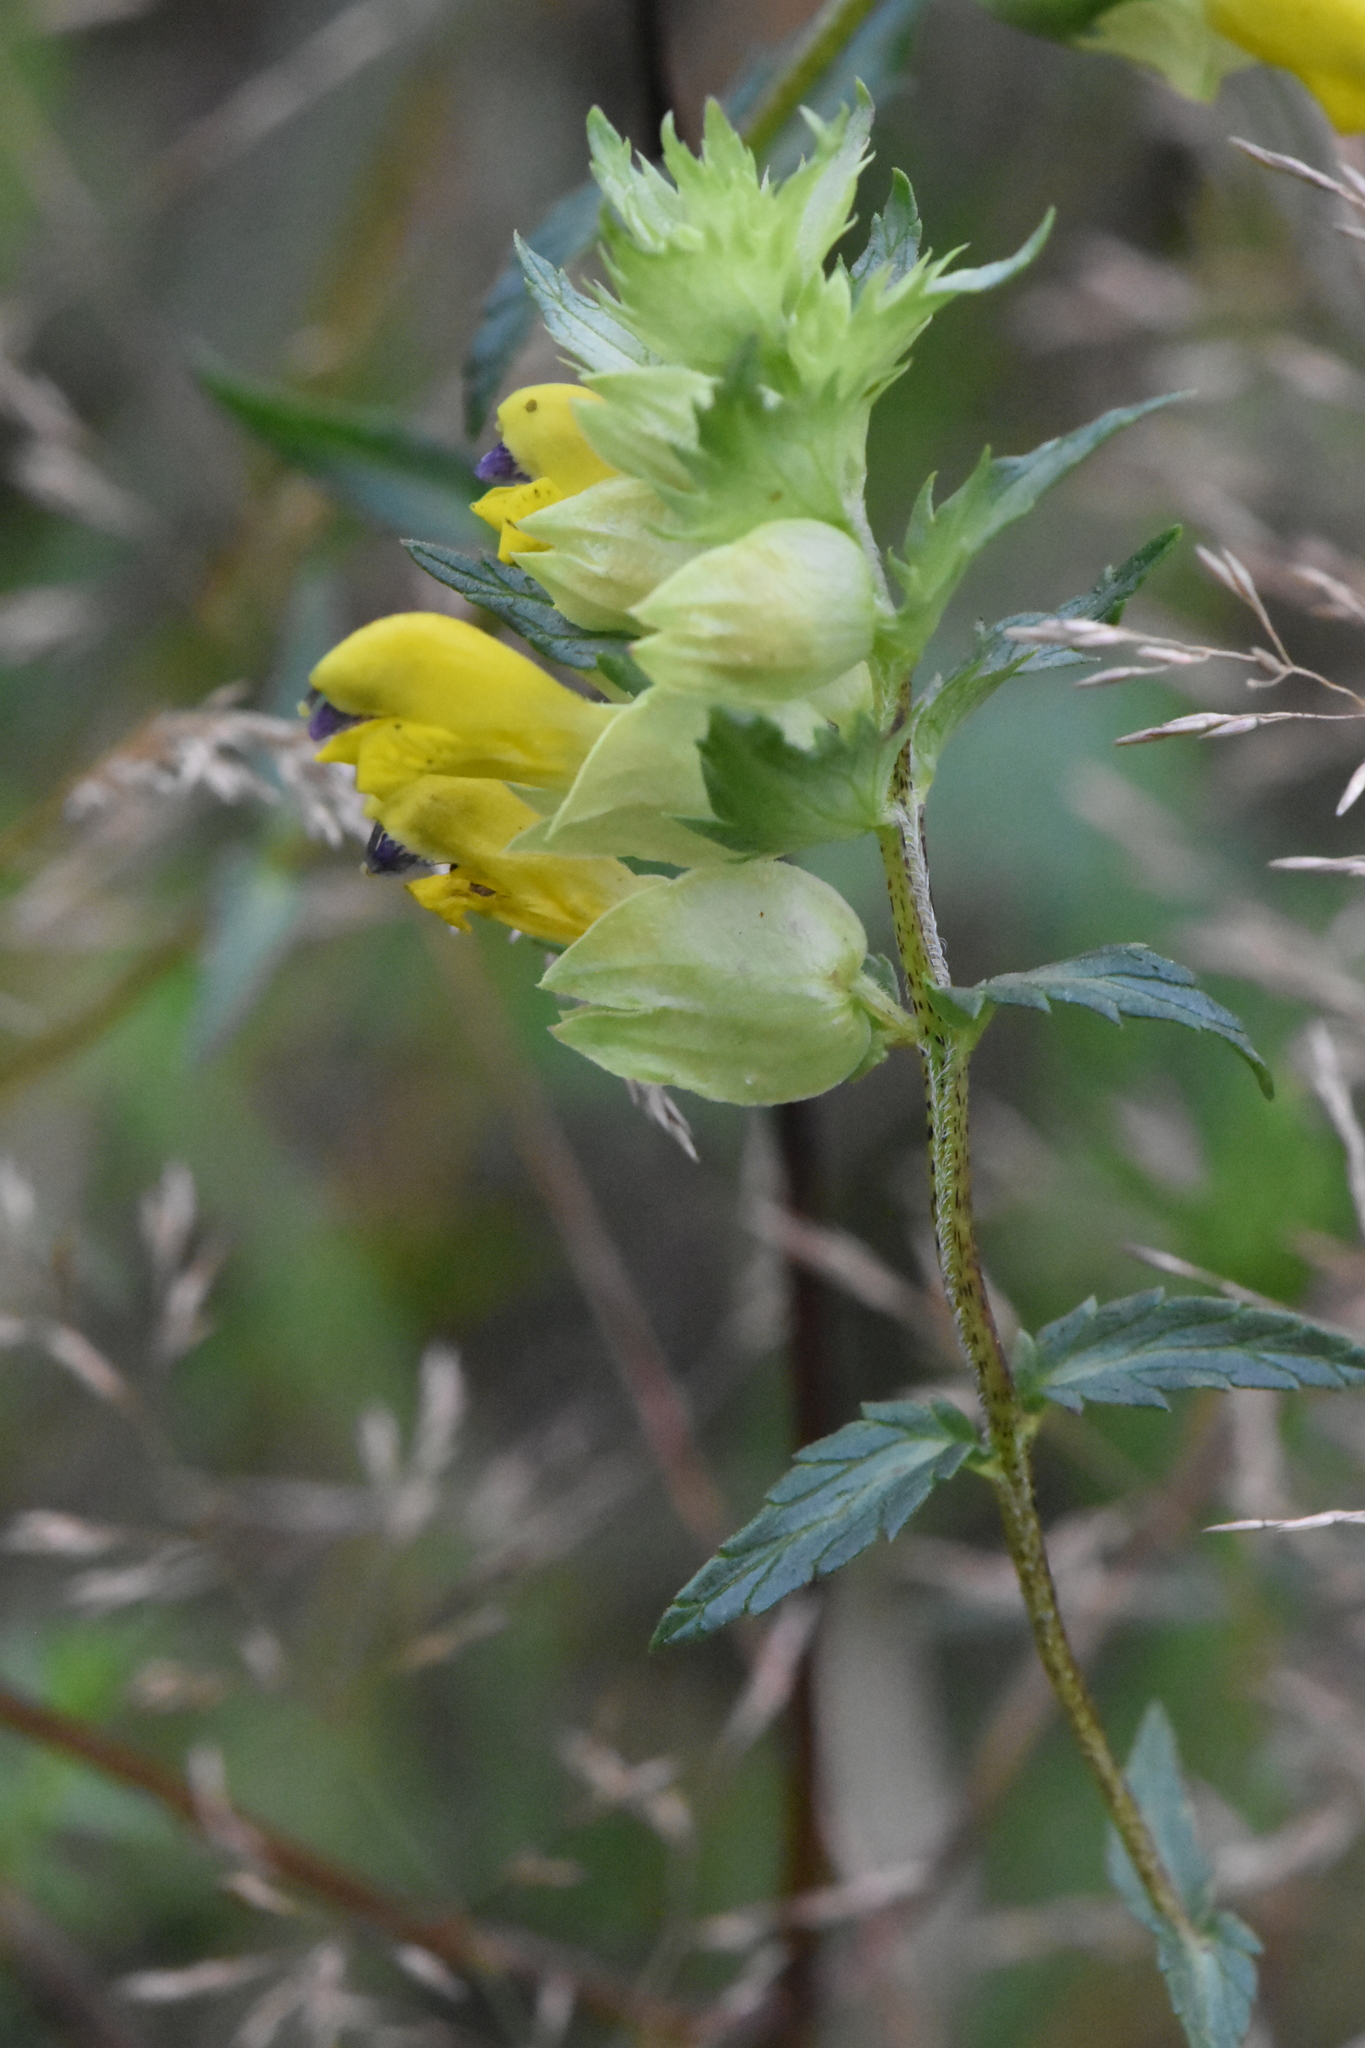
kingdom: Plantae
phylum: Tracheophyta
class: Magnoliopsida
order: Lamiales
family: Orobanchaceae
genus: Rhinanthus
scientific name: Rhinanthus serotinus
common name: Late-flowering yellow rattle
